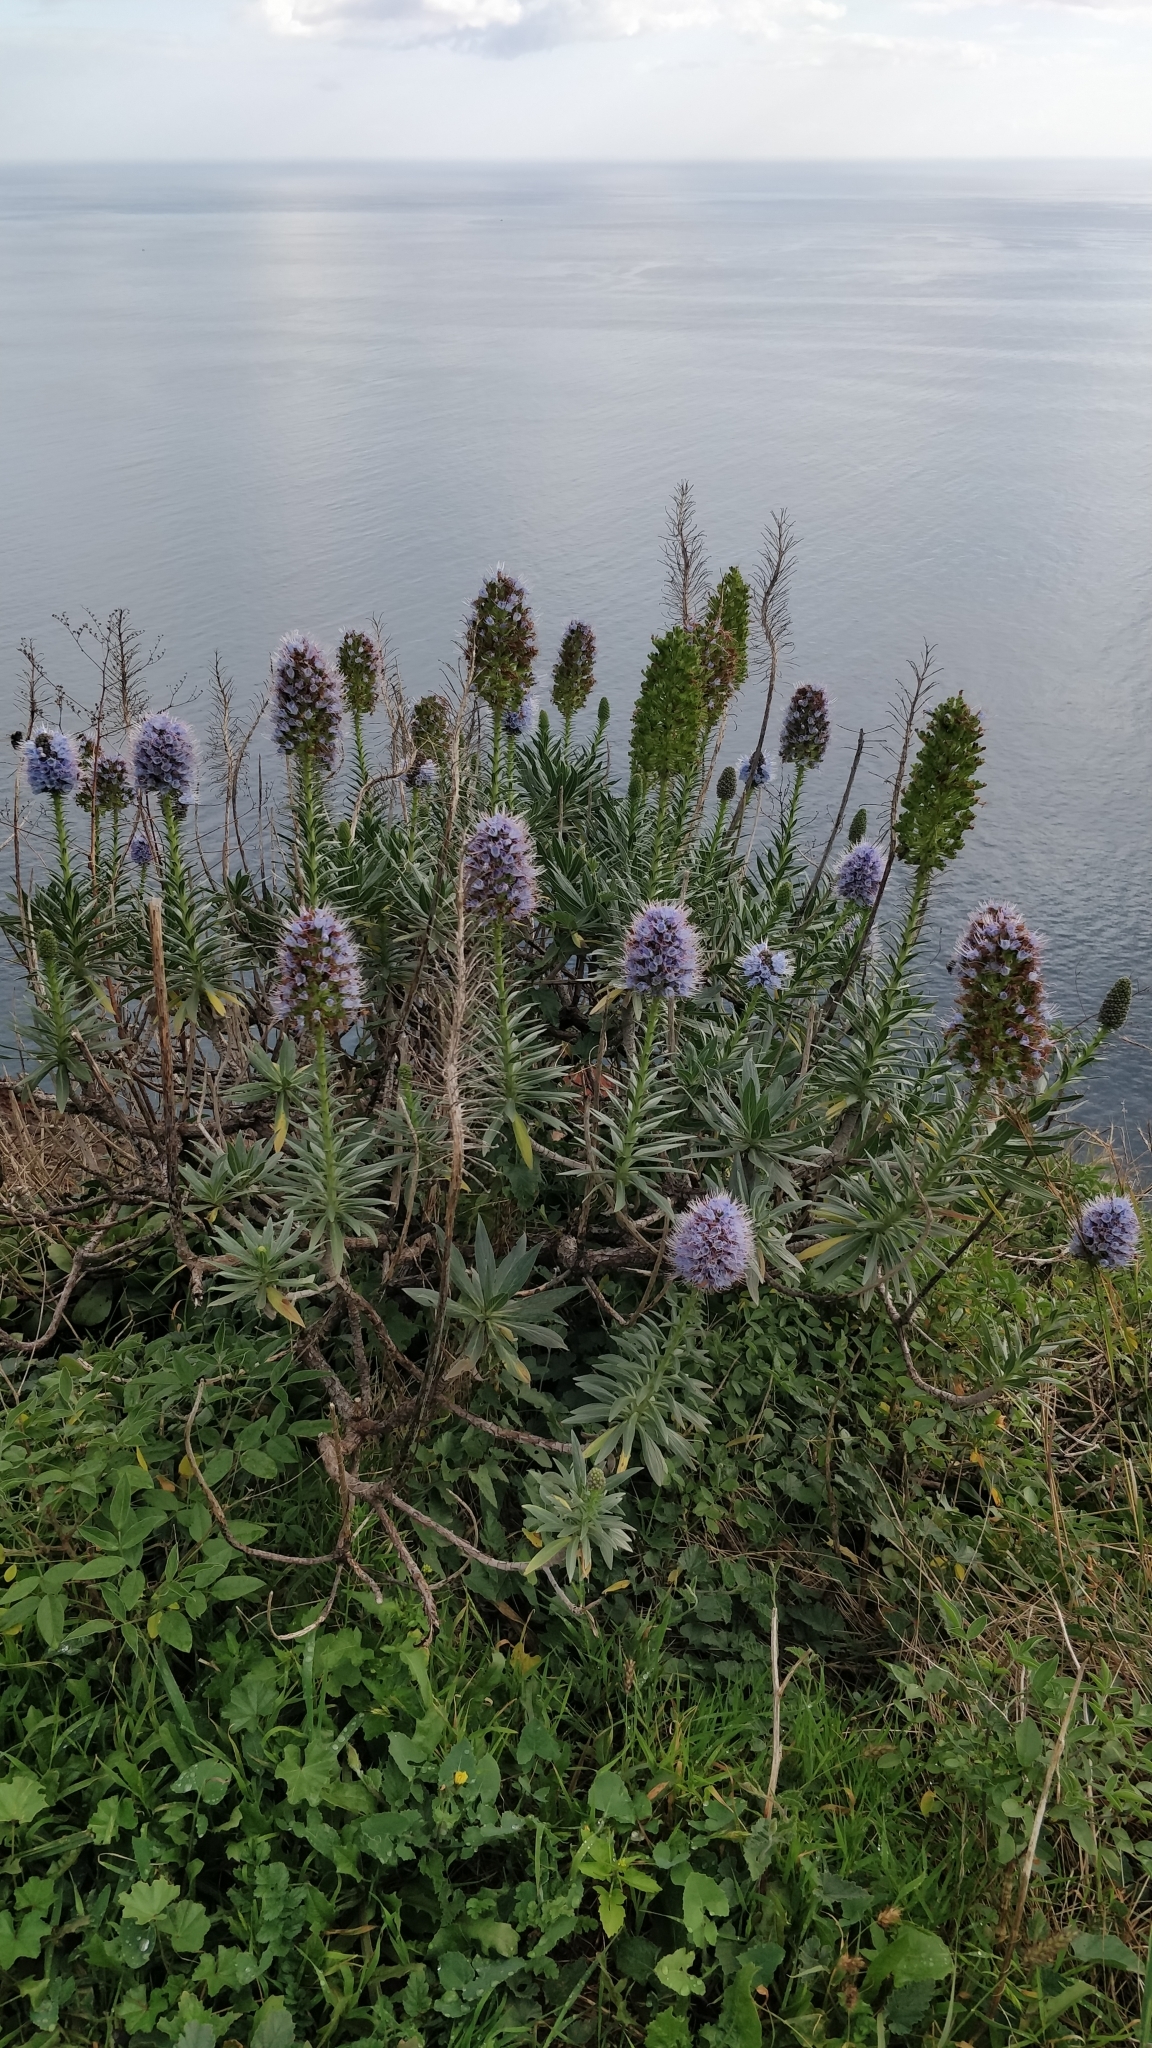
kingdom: Plantae
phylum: Tracheophyta
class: Magnoliopsida
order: Boraginales
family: Boraginaceae
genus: Echium
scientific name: Echium nervosum
